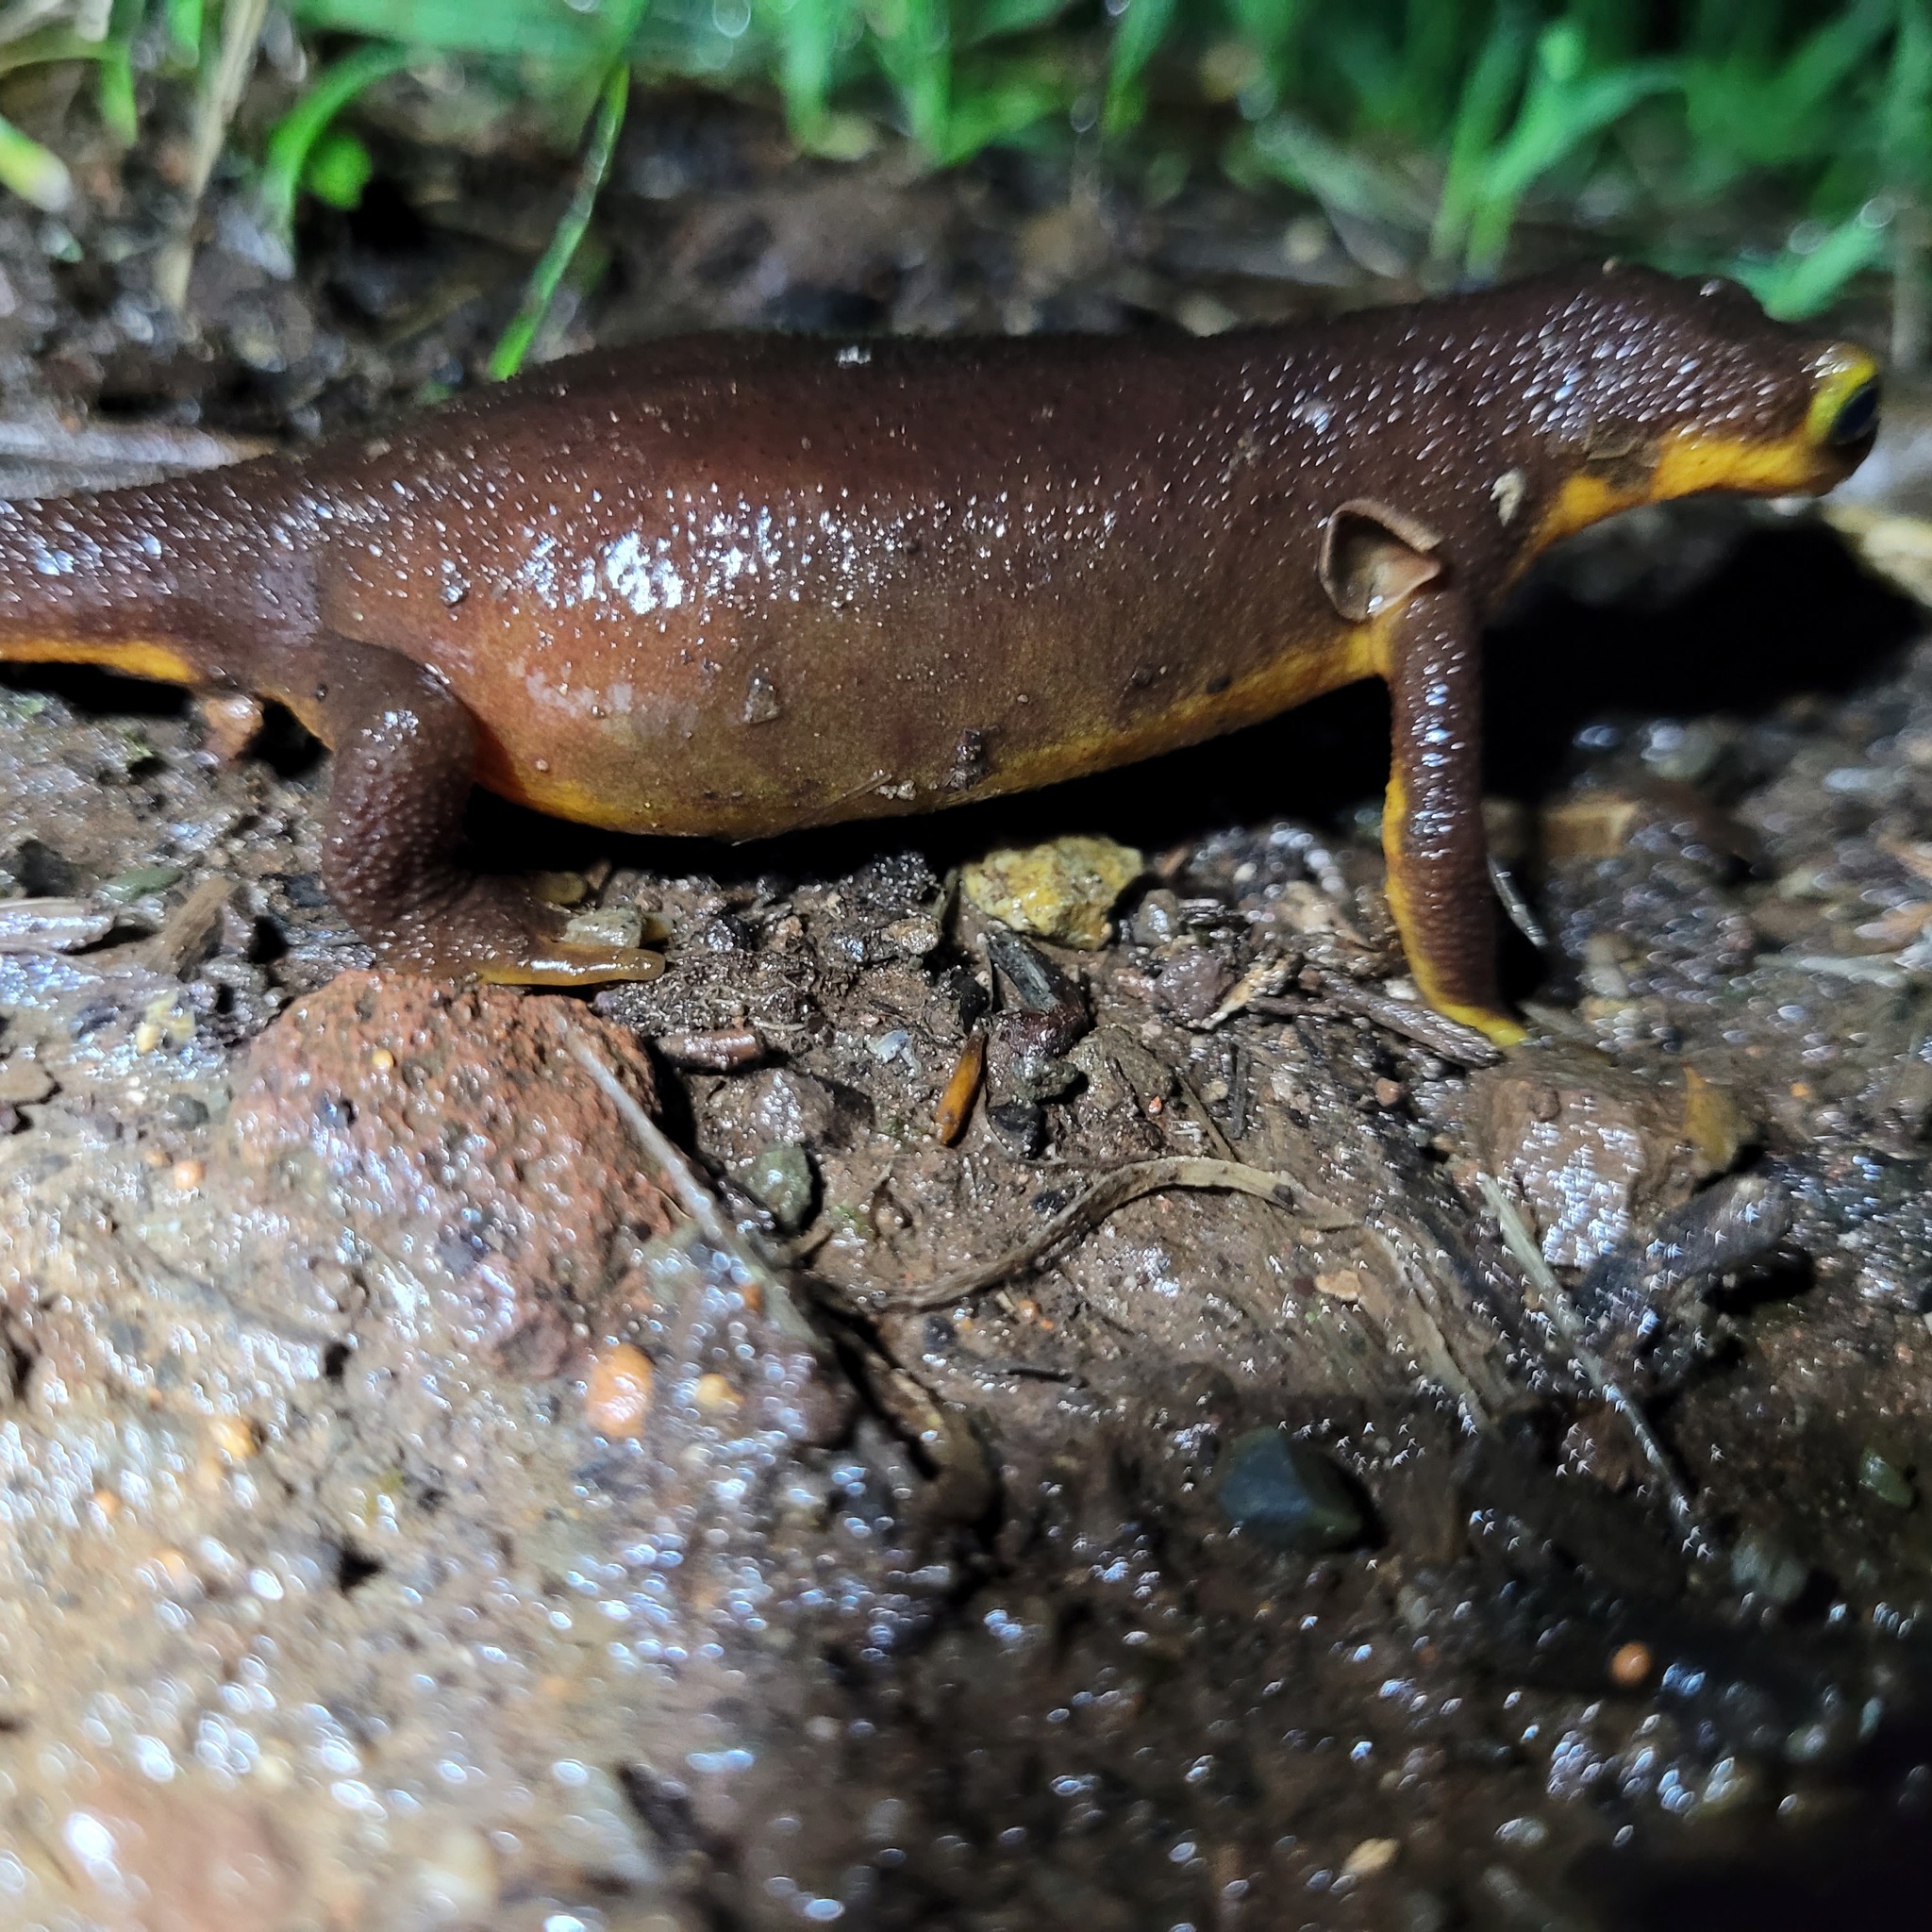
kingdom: Animalia
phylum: Chordata
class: Amphibia
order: Caudata
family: Salamandridae
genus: Taricha
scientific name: Taricha torosa
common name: California newt
